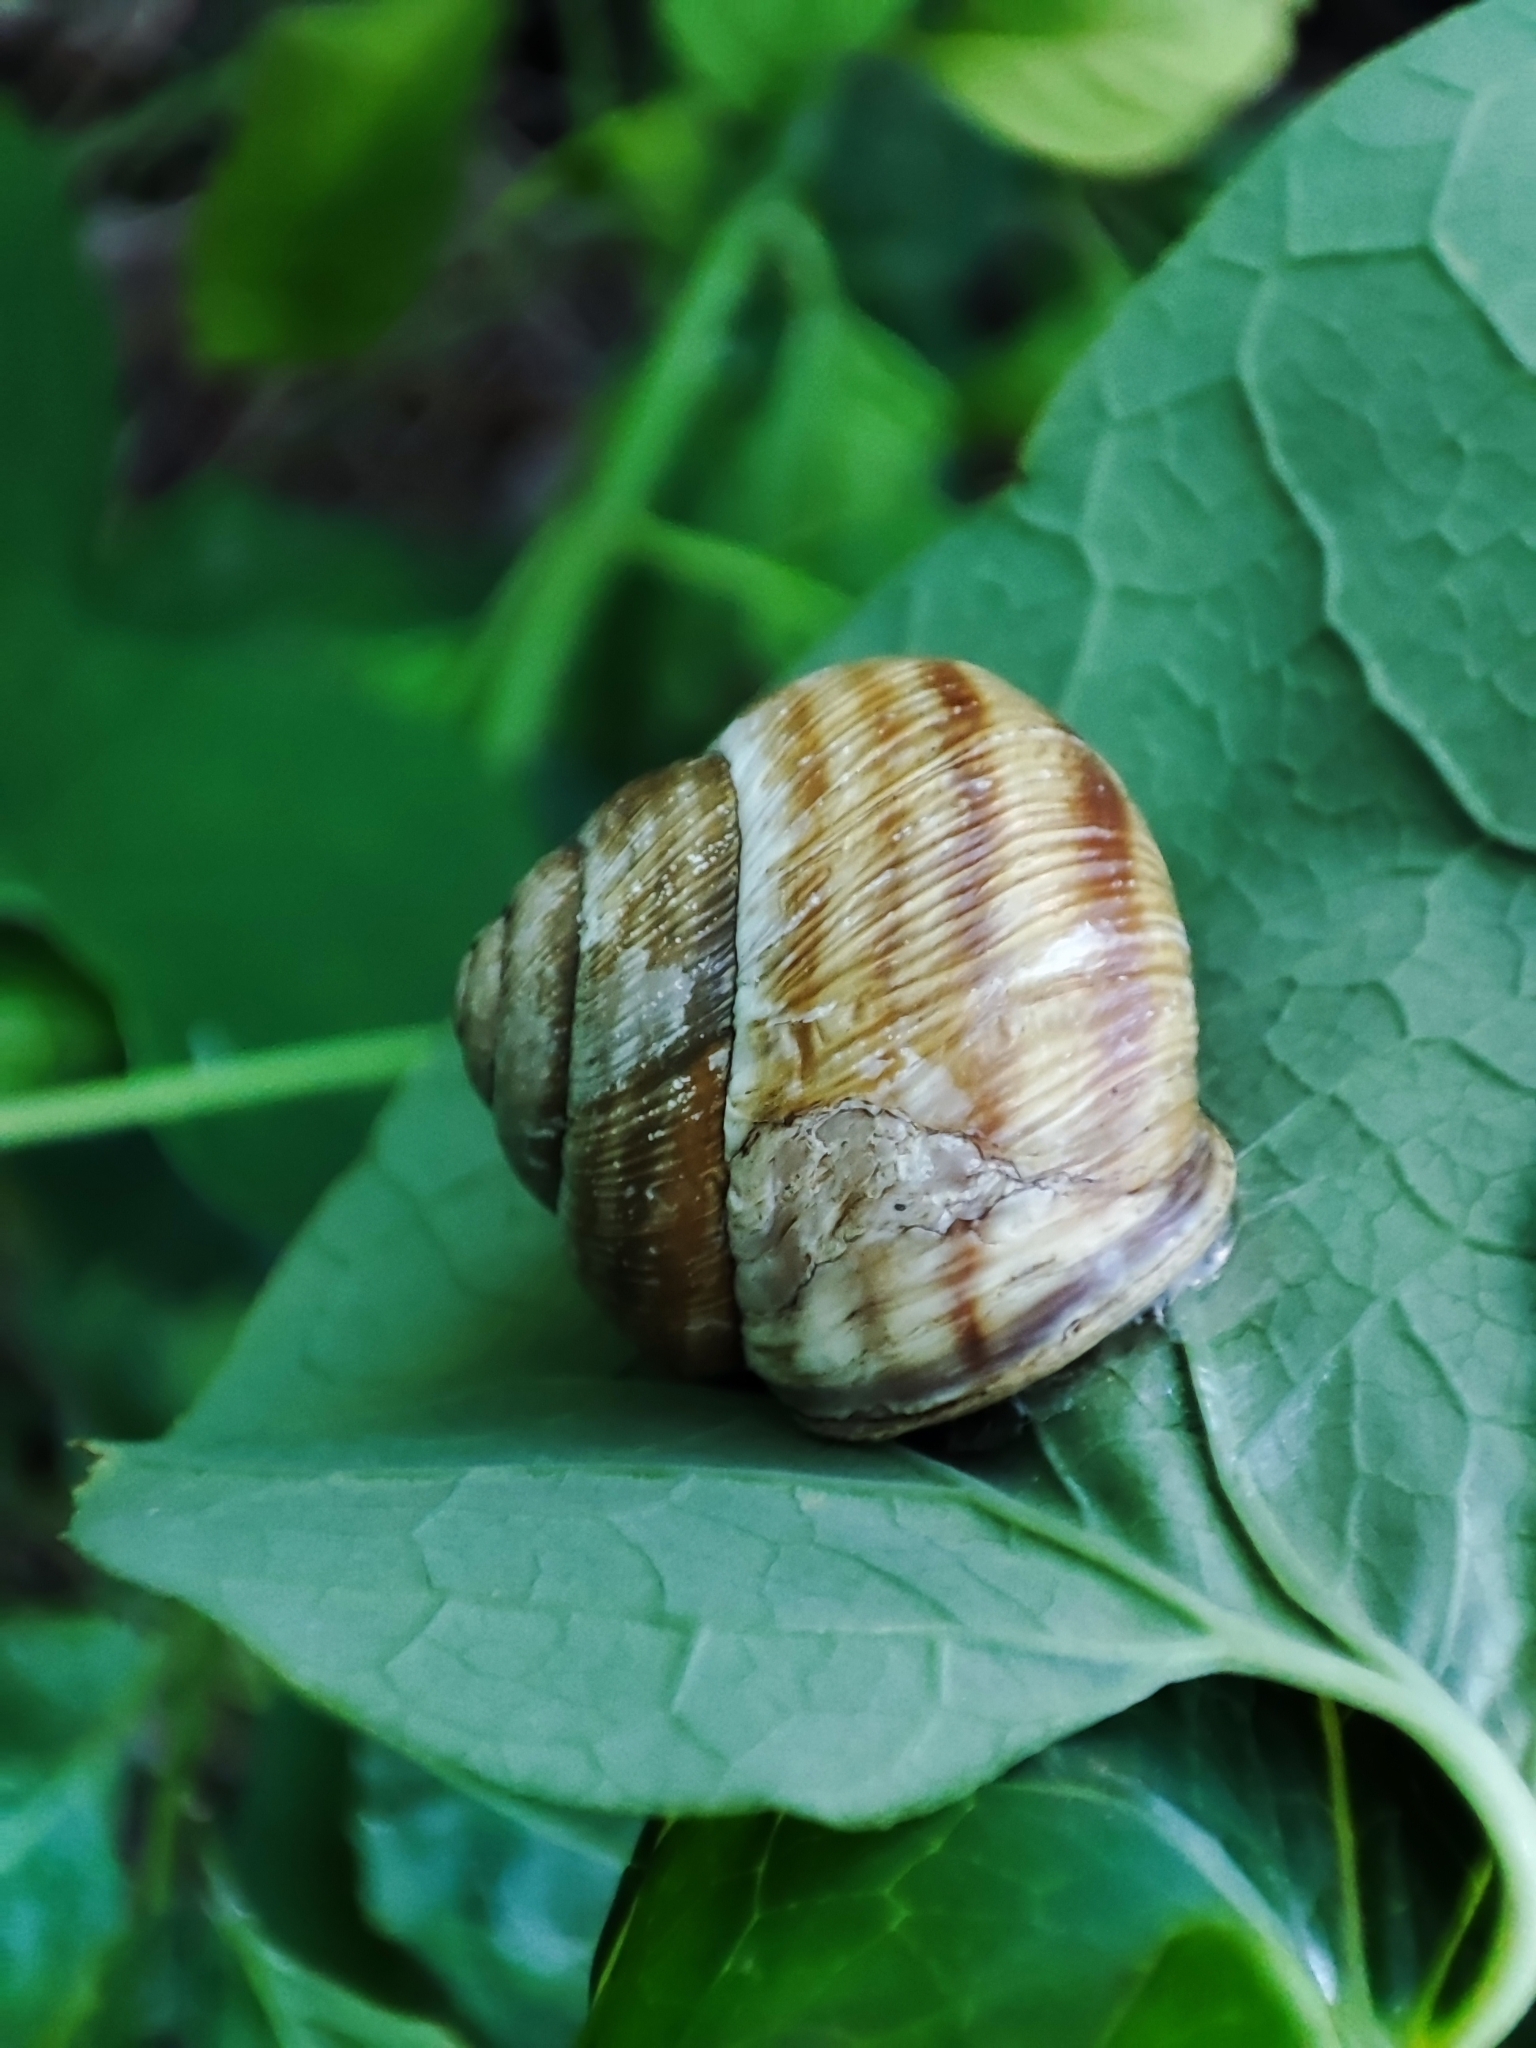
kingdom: Animalia
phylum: Mollusca
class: Gastropoda
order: Stylommatophora
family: Helicidae
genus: Caucasotachea
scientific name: Caucasotachea vindobonensis
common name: European helicid land snail
